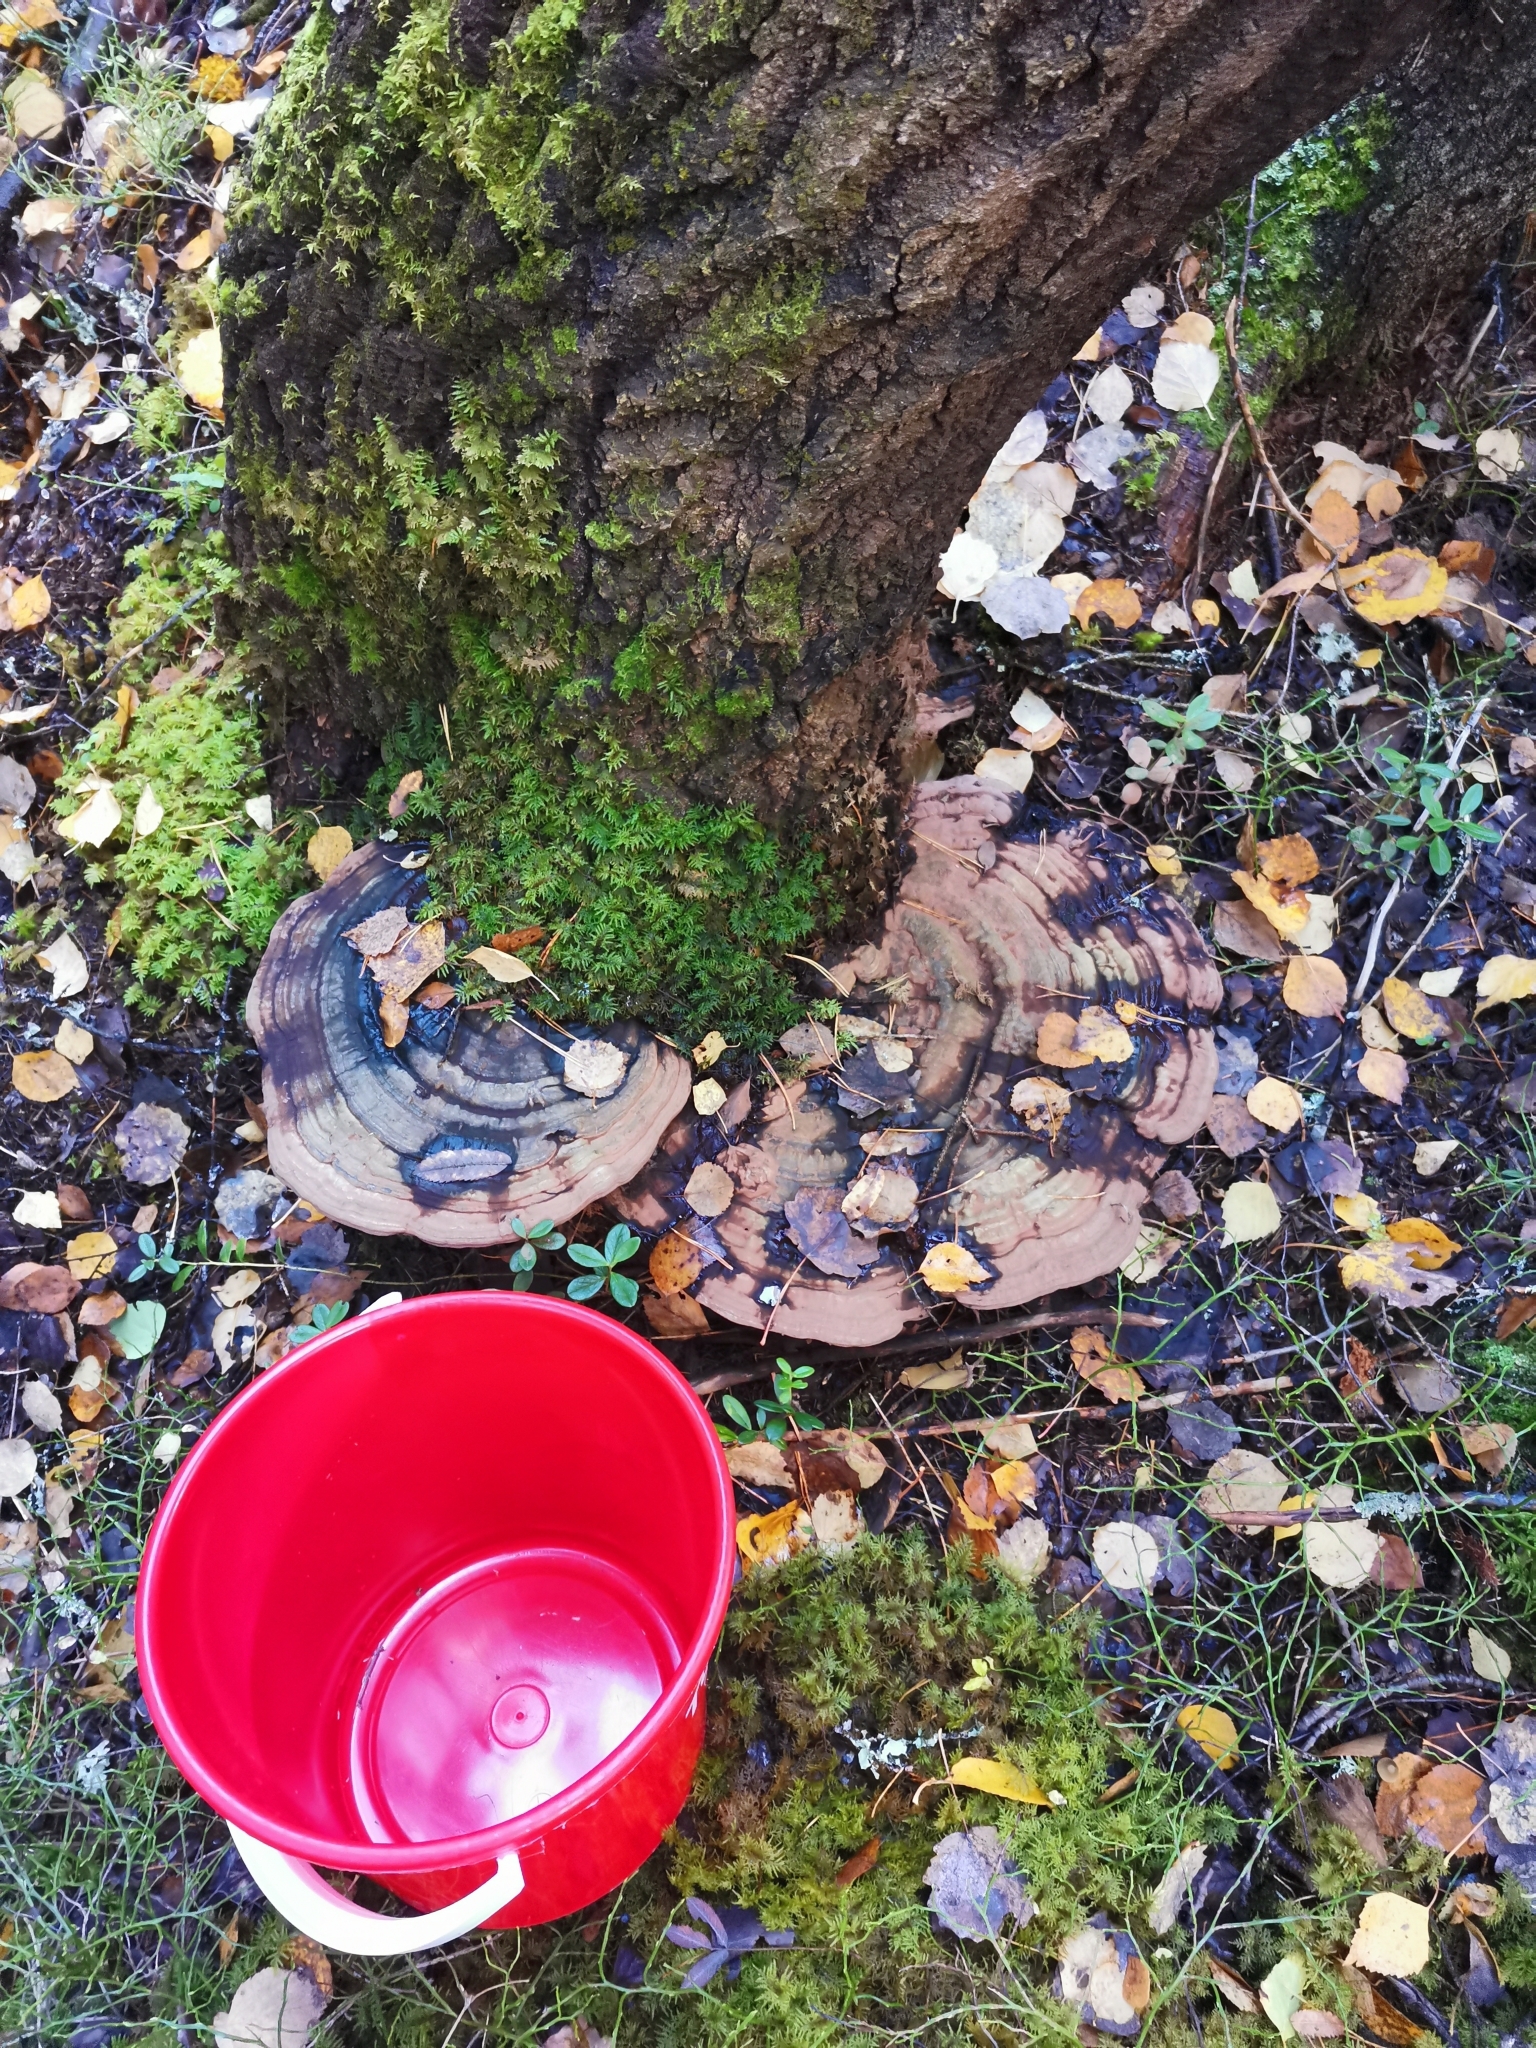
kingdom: Fungi
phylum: Basidiomycota
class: Agaricomycetes
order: Polyporales
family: Polyporaceae
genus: Ganoderma
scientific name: Ganoderma applanatum
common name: Artist's bracket
